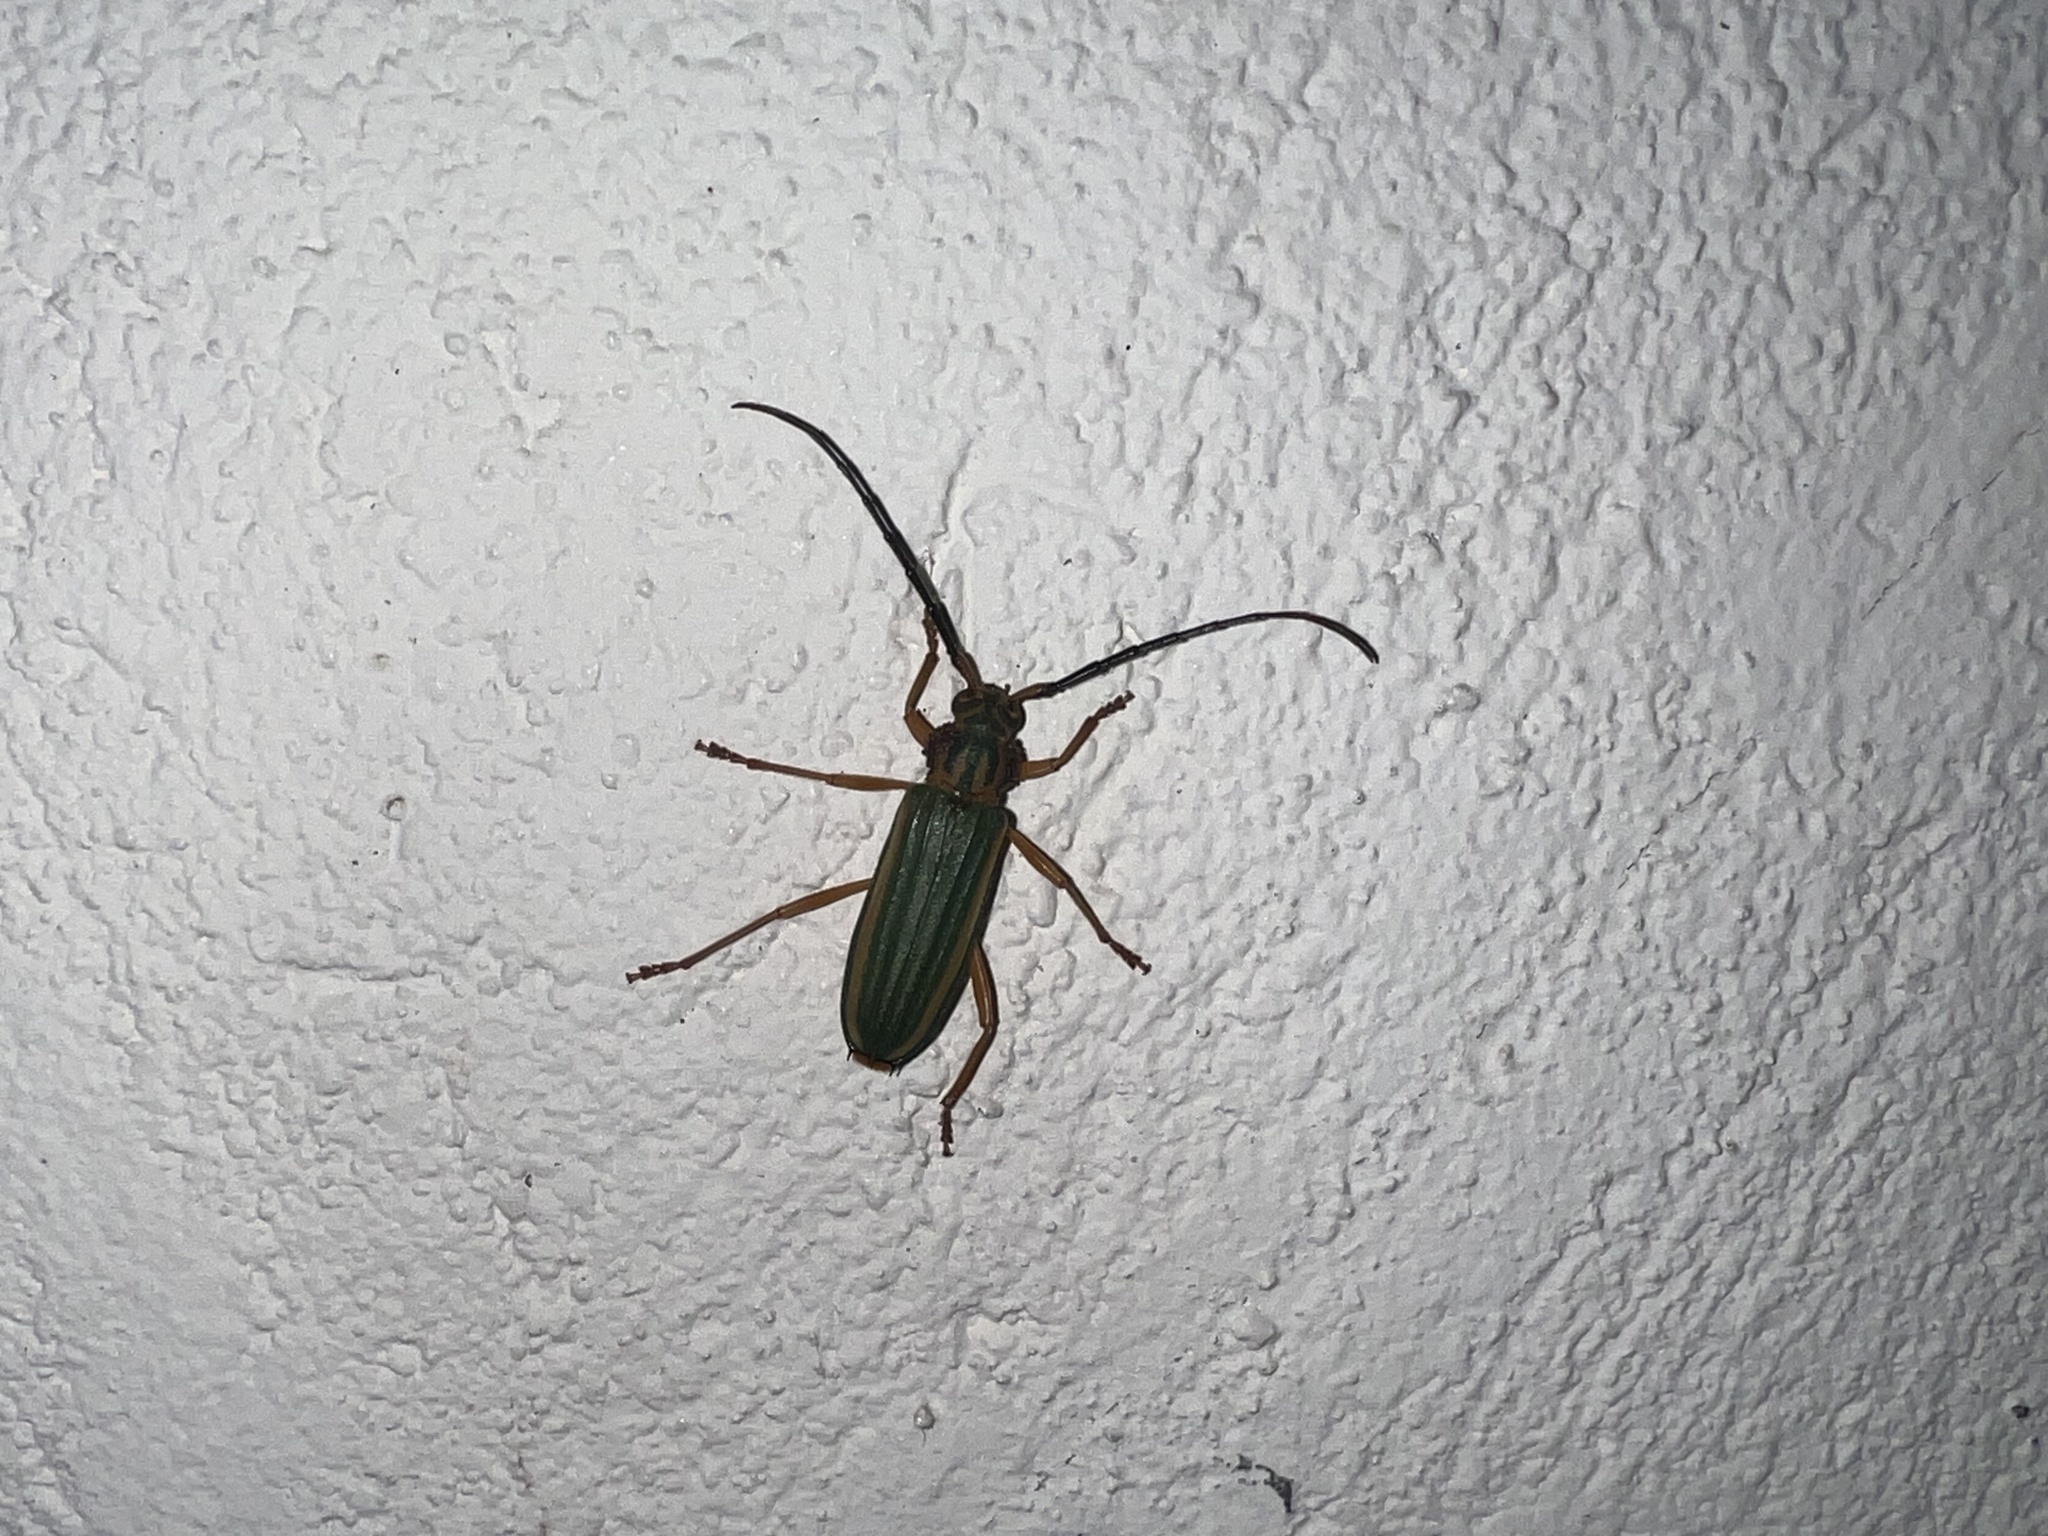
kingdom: Animalia
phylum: Arthropoda
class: Insecta
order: Coleoptera
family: Cerambycidae
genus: Chlorida
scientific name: Chlorida festiva
